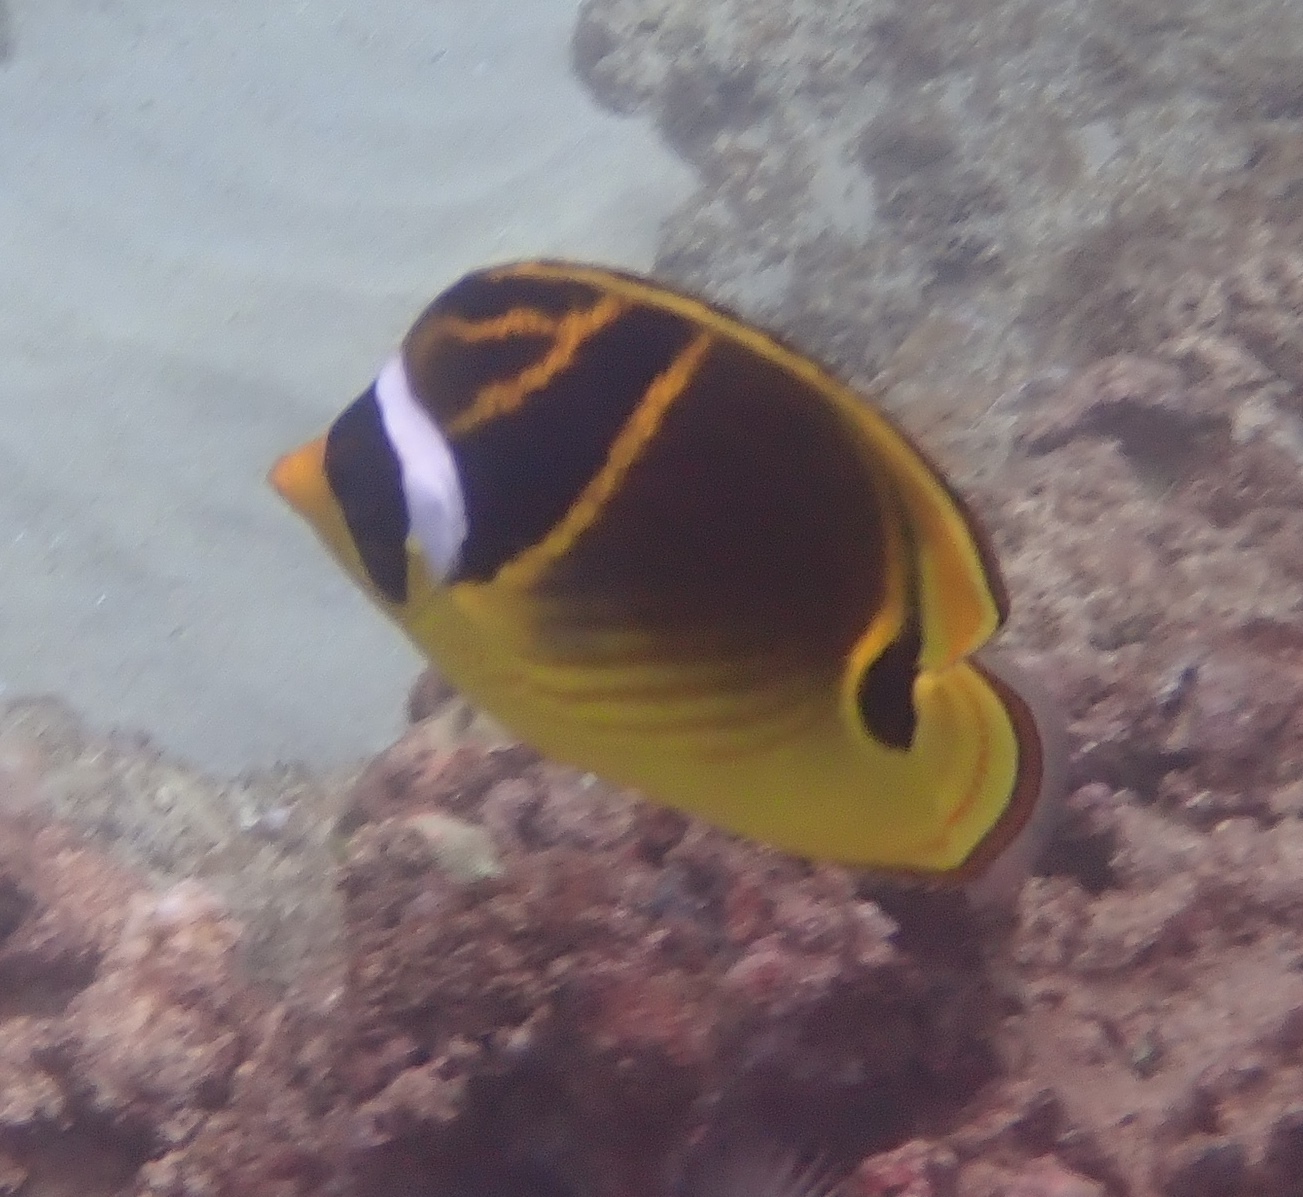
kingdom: Animalia
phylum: Chordata
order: Perciformes
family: Chaetodontidae
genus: Chaetodon
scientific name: Chaetodon lunula
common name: Raccoon butterflyfish
